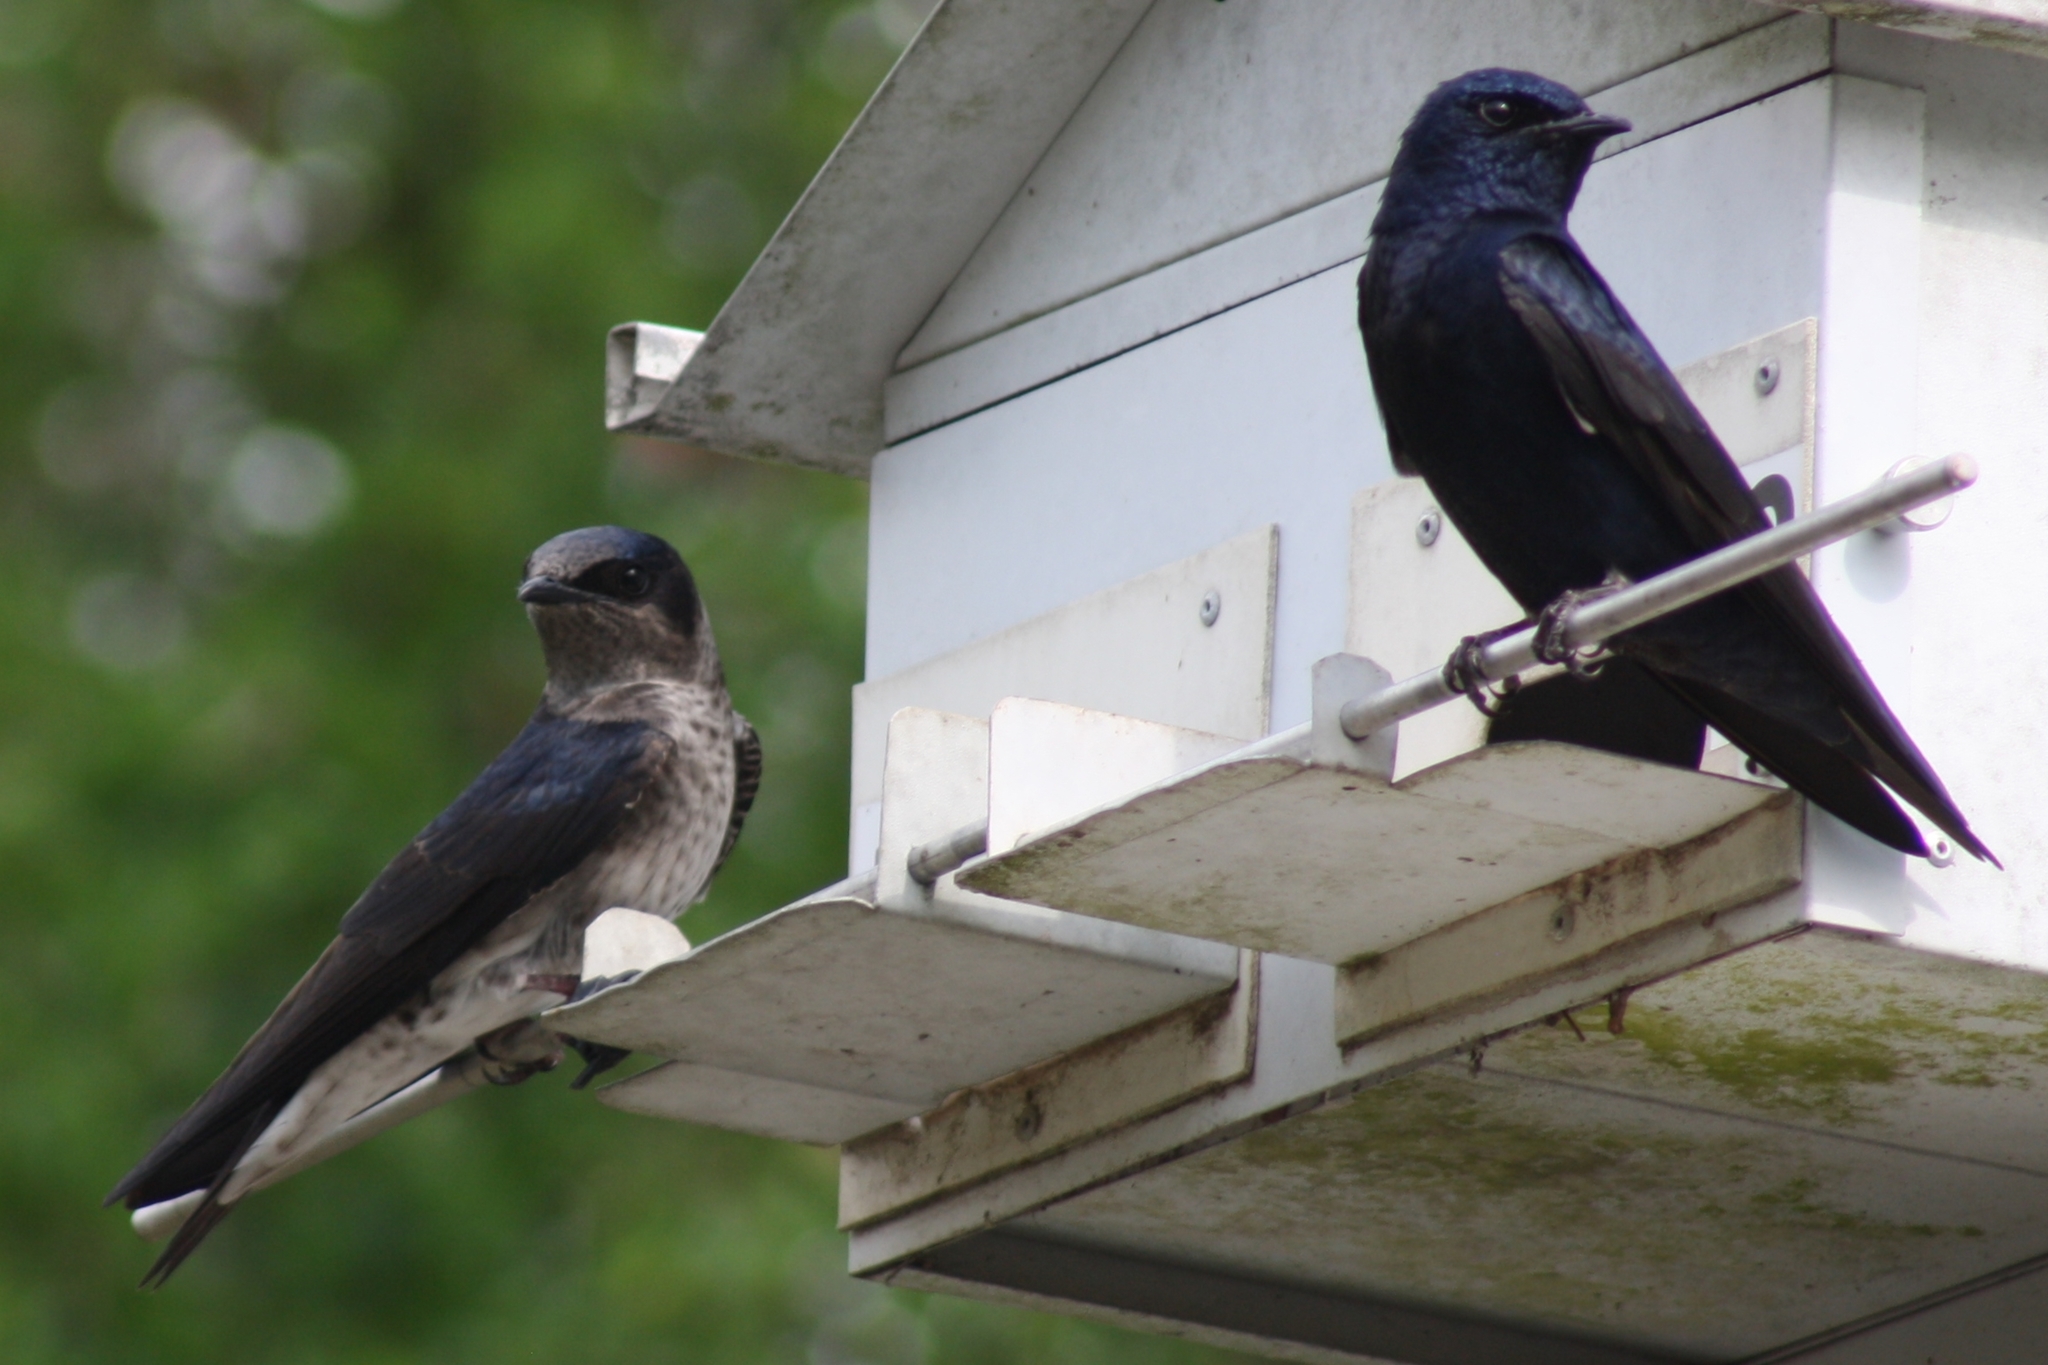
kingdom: Animalia
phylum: Chordata
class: Aves
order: Passeriformes
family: Hirundinidae
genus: Progne
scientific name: Progne subis
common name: Purple martin
